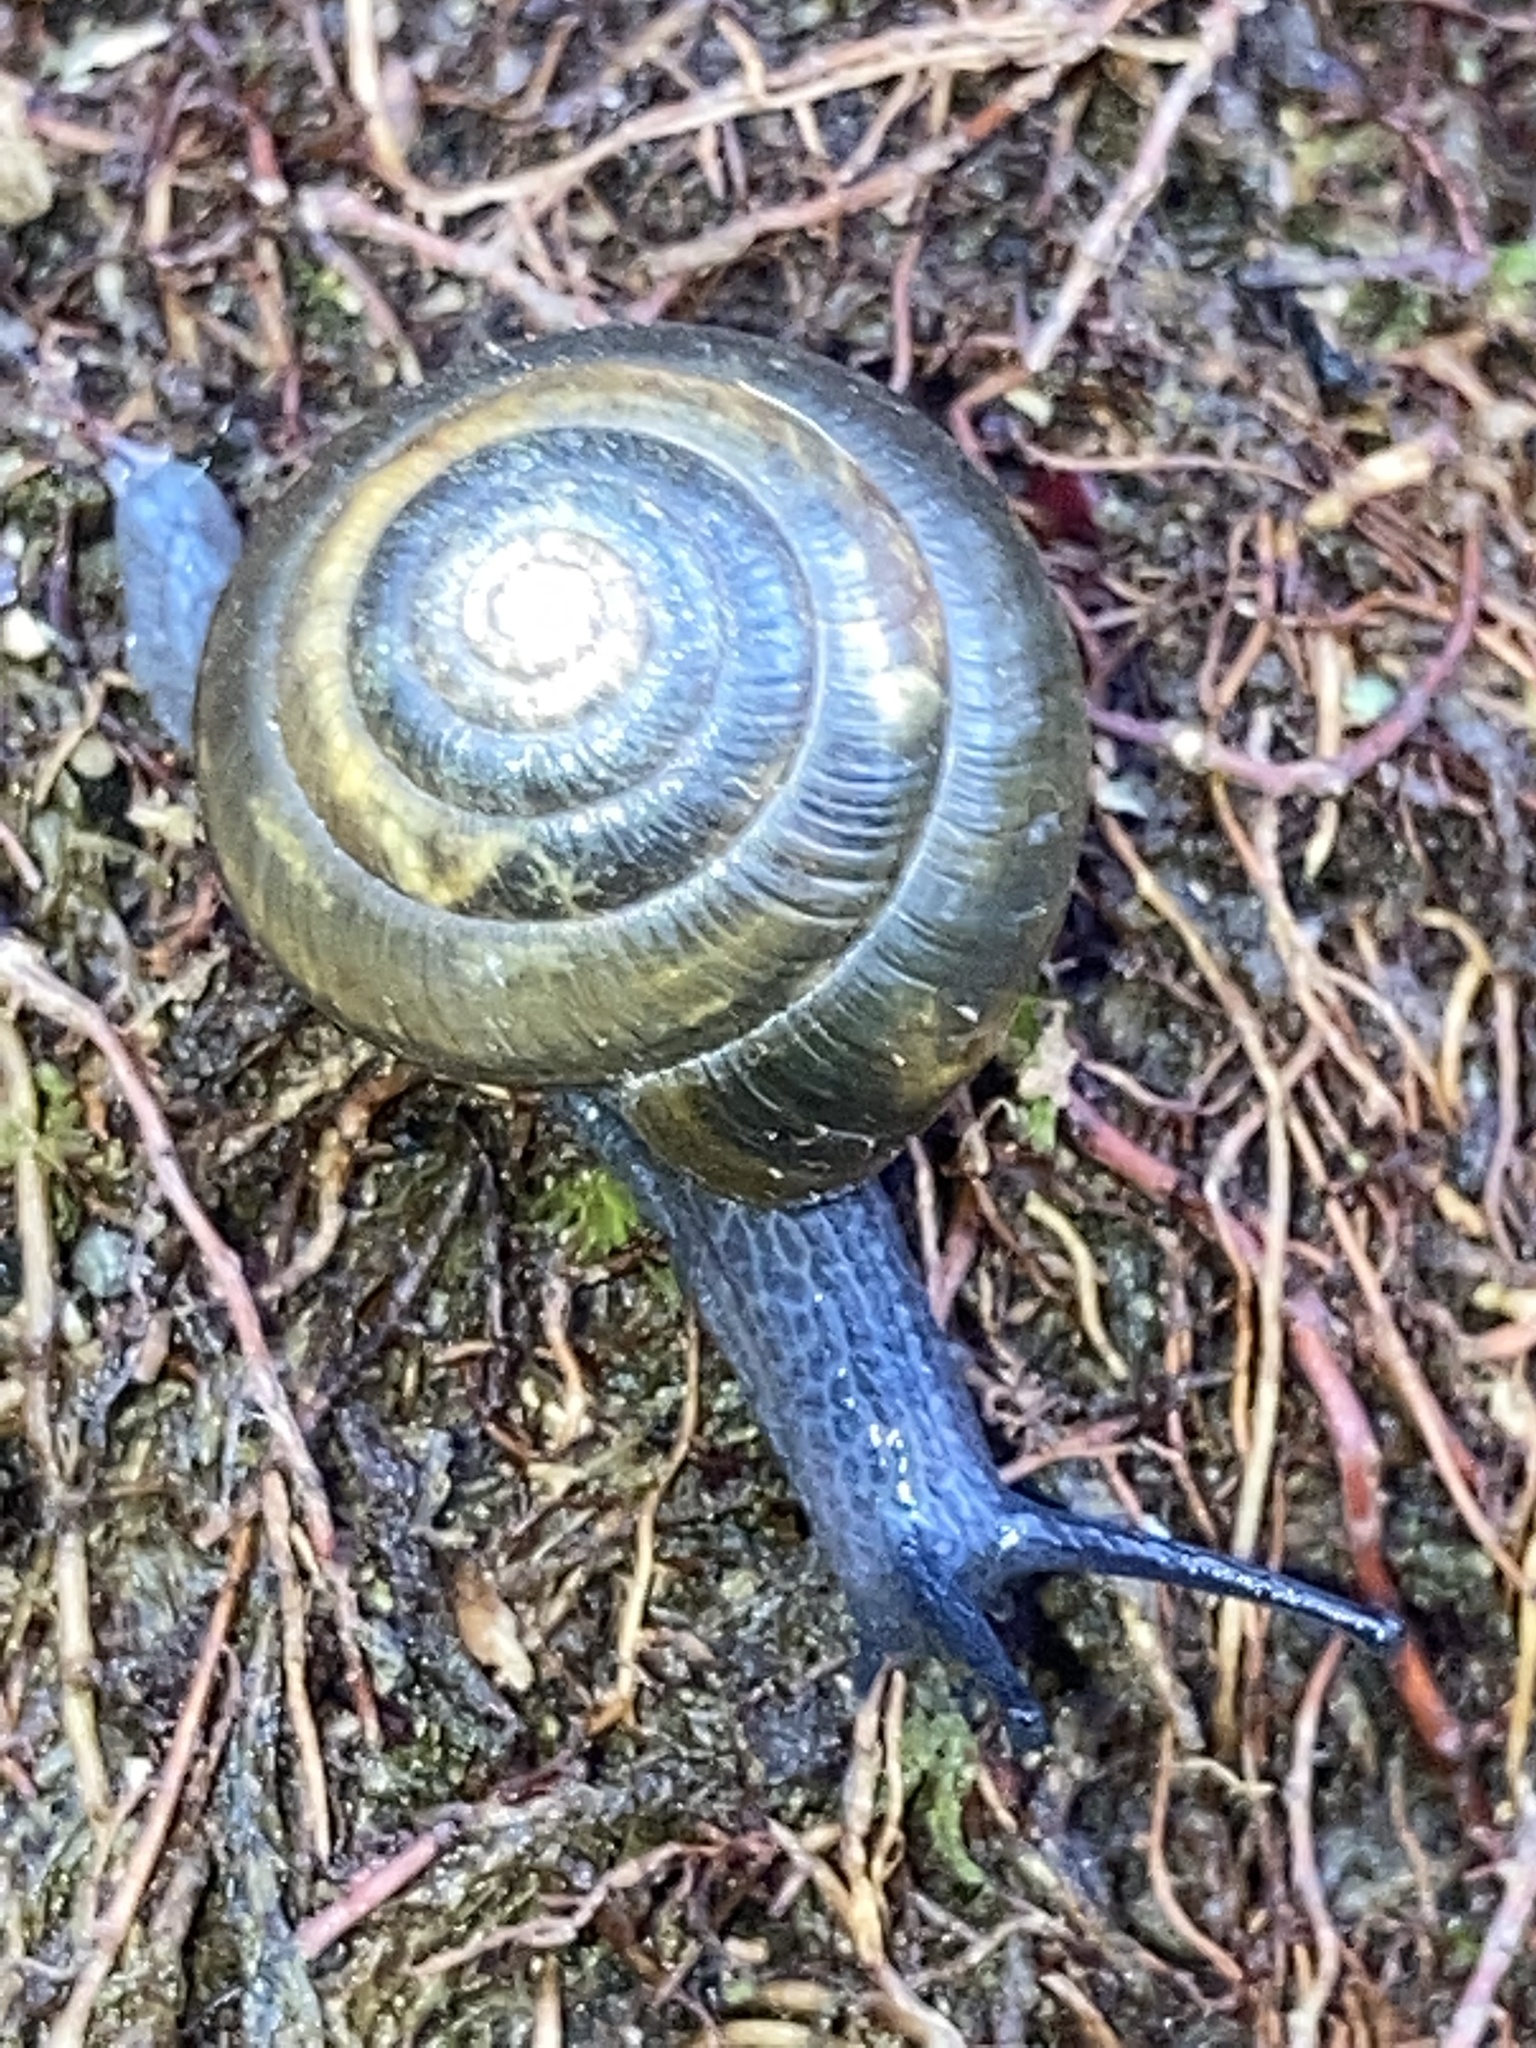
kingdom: Animalia
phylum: Mollusca
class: Gastropoda
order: Stylommatophora
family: Gastrodontidae
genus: Ventridens
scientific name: Ventridens ligera
